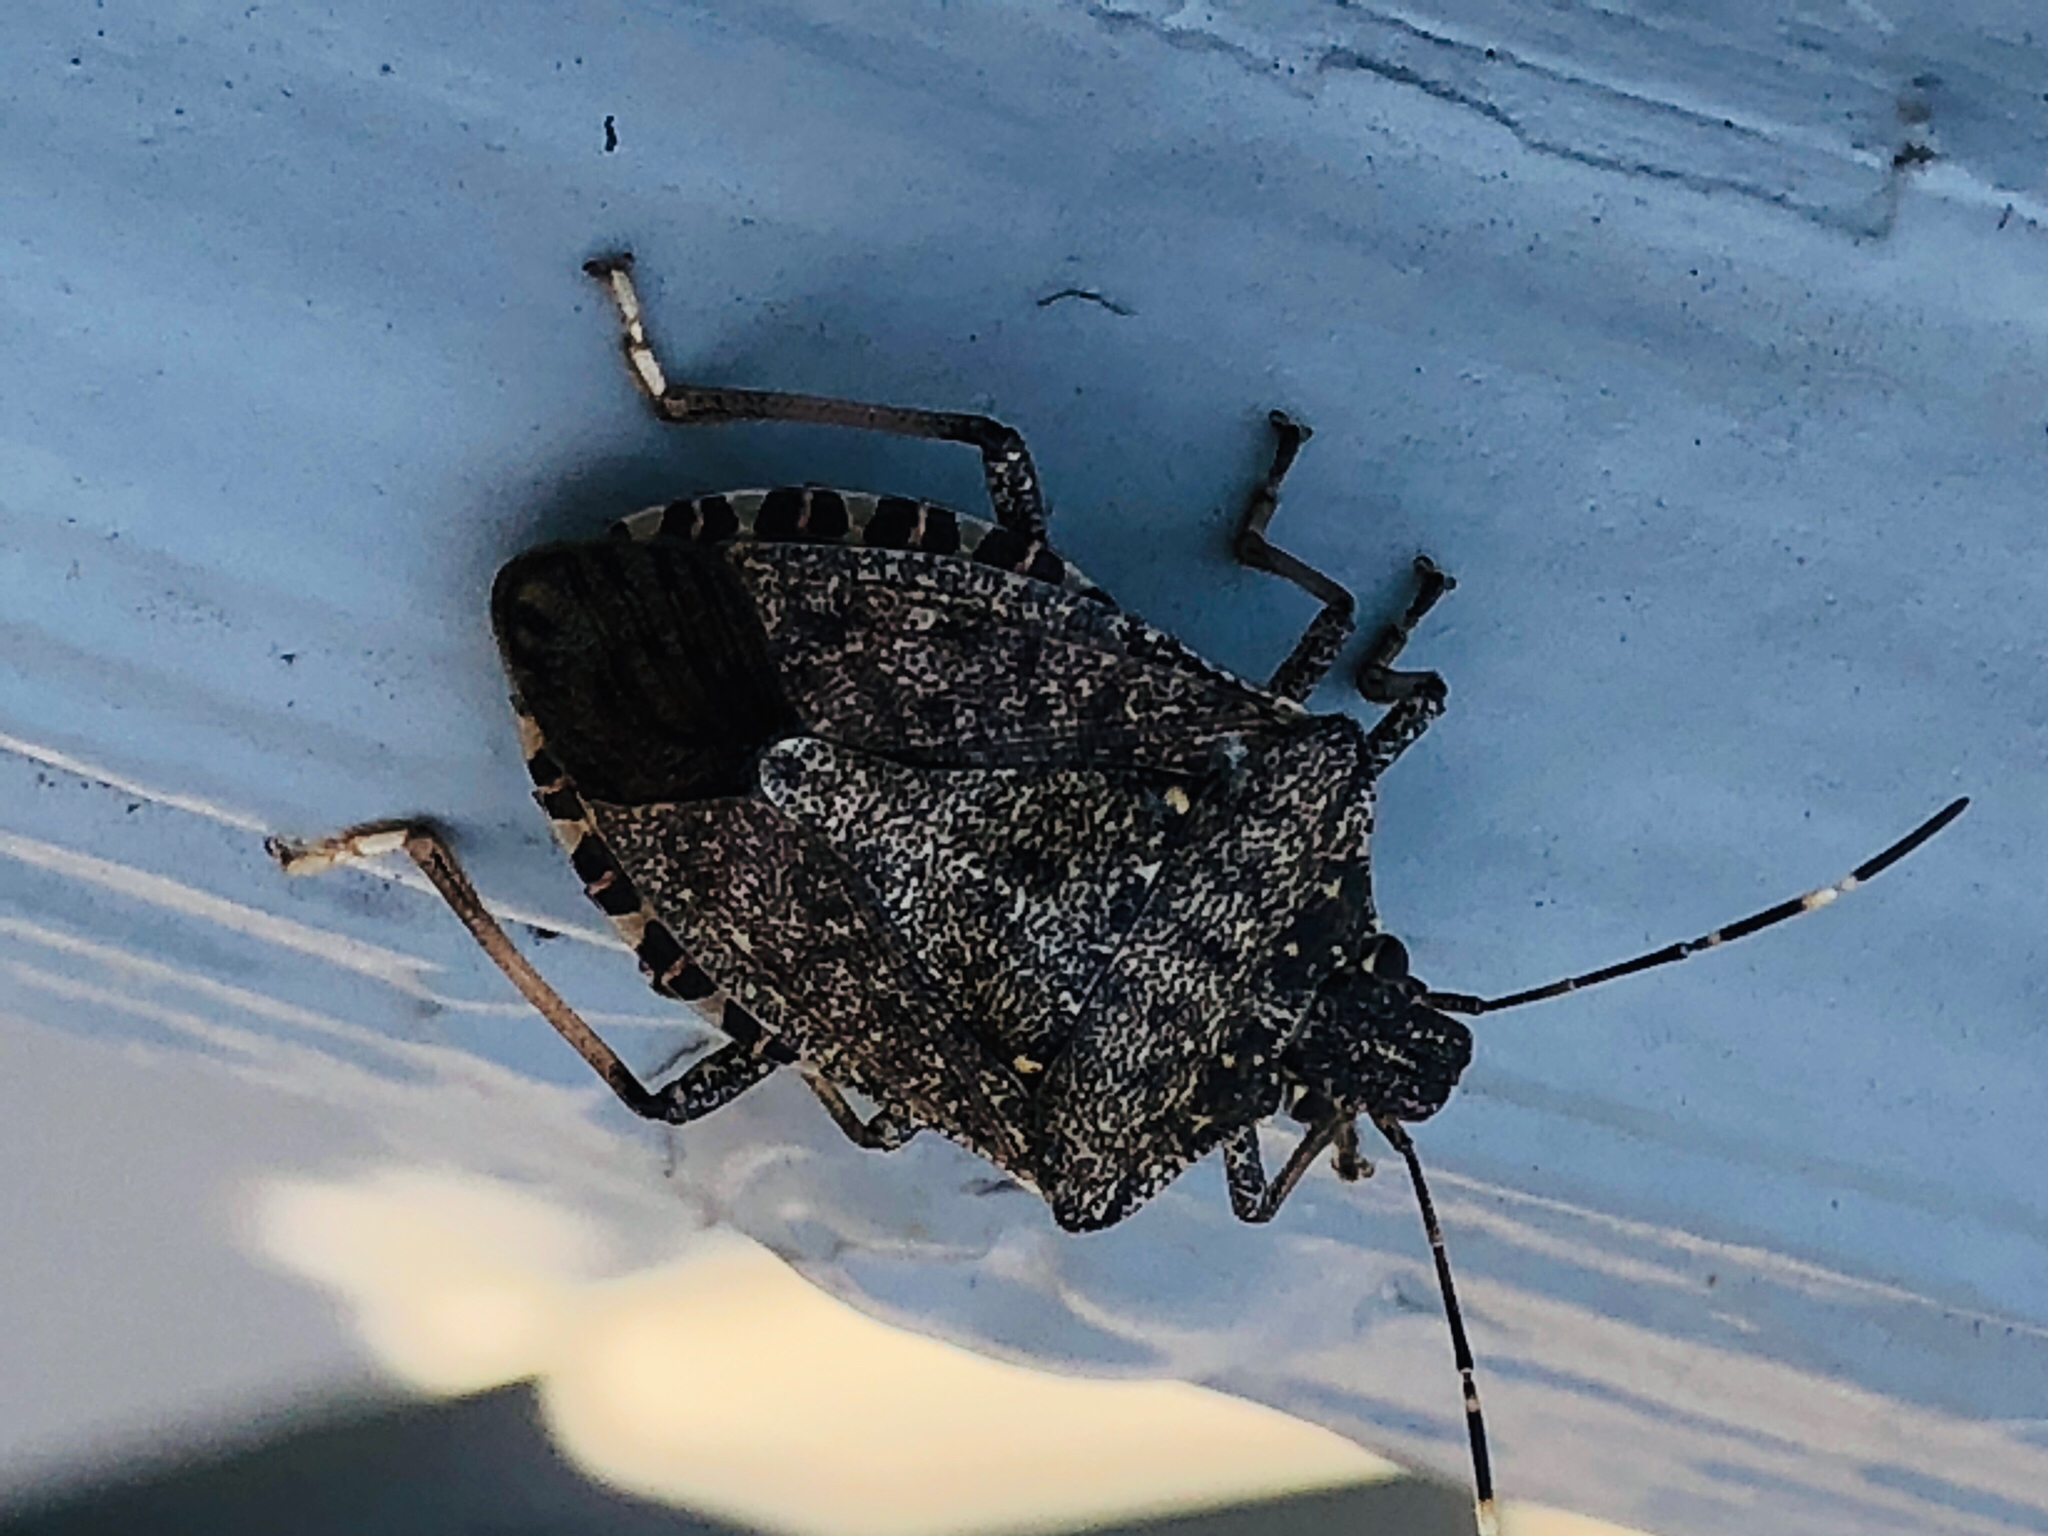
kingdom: Animalia
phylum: Arthropoda
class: Insecta
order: Hemiptera
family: Pentatomidae
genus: Halyomorpha
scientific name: Halyomorpha halys
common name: Brown marmorated stink bug
